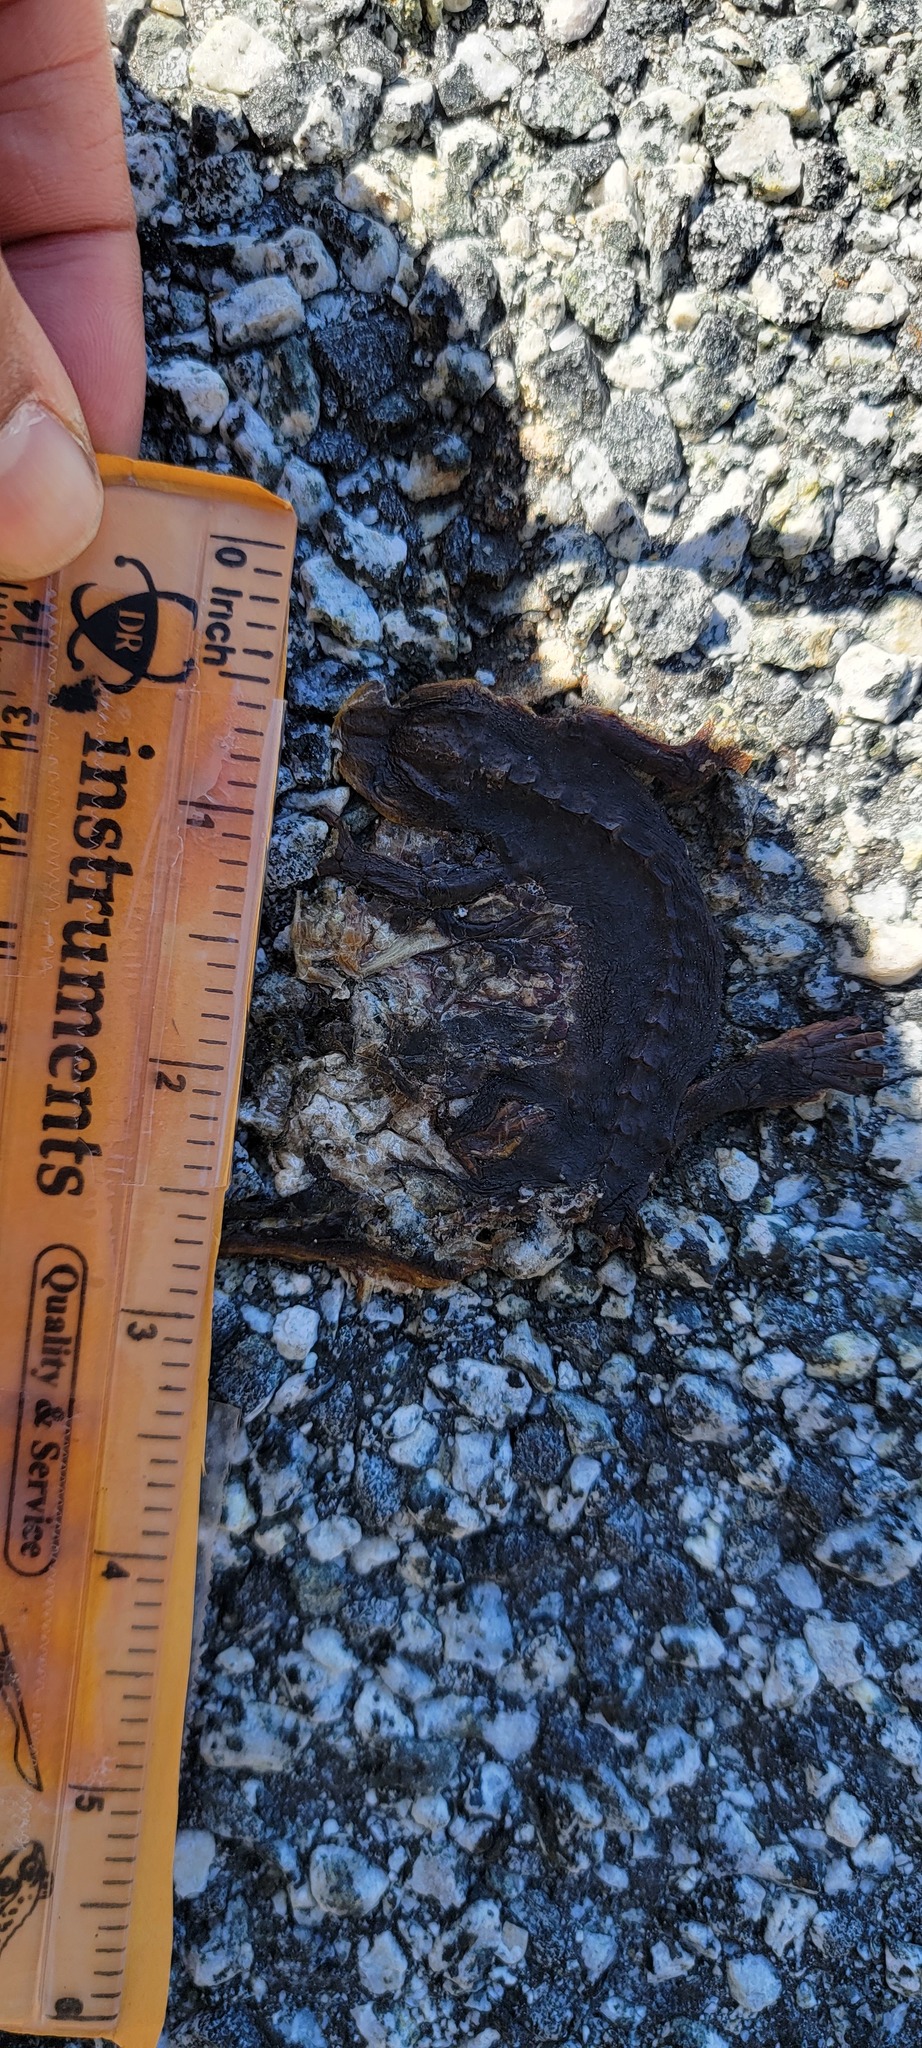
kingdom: Animalia
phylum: Chordata
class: Amphibia
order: Caudata
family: Salamandridae
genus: Taricha
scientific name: Taricha
